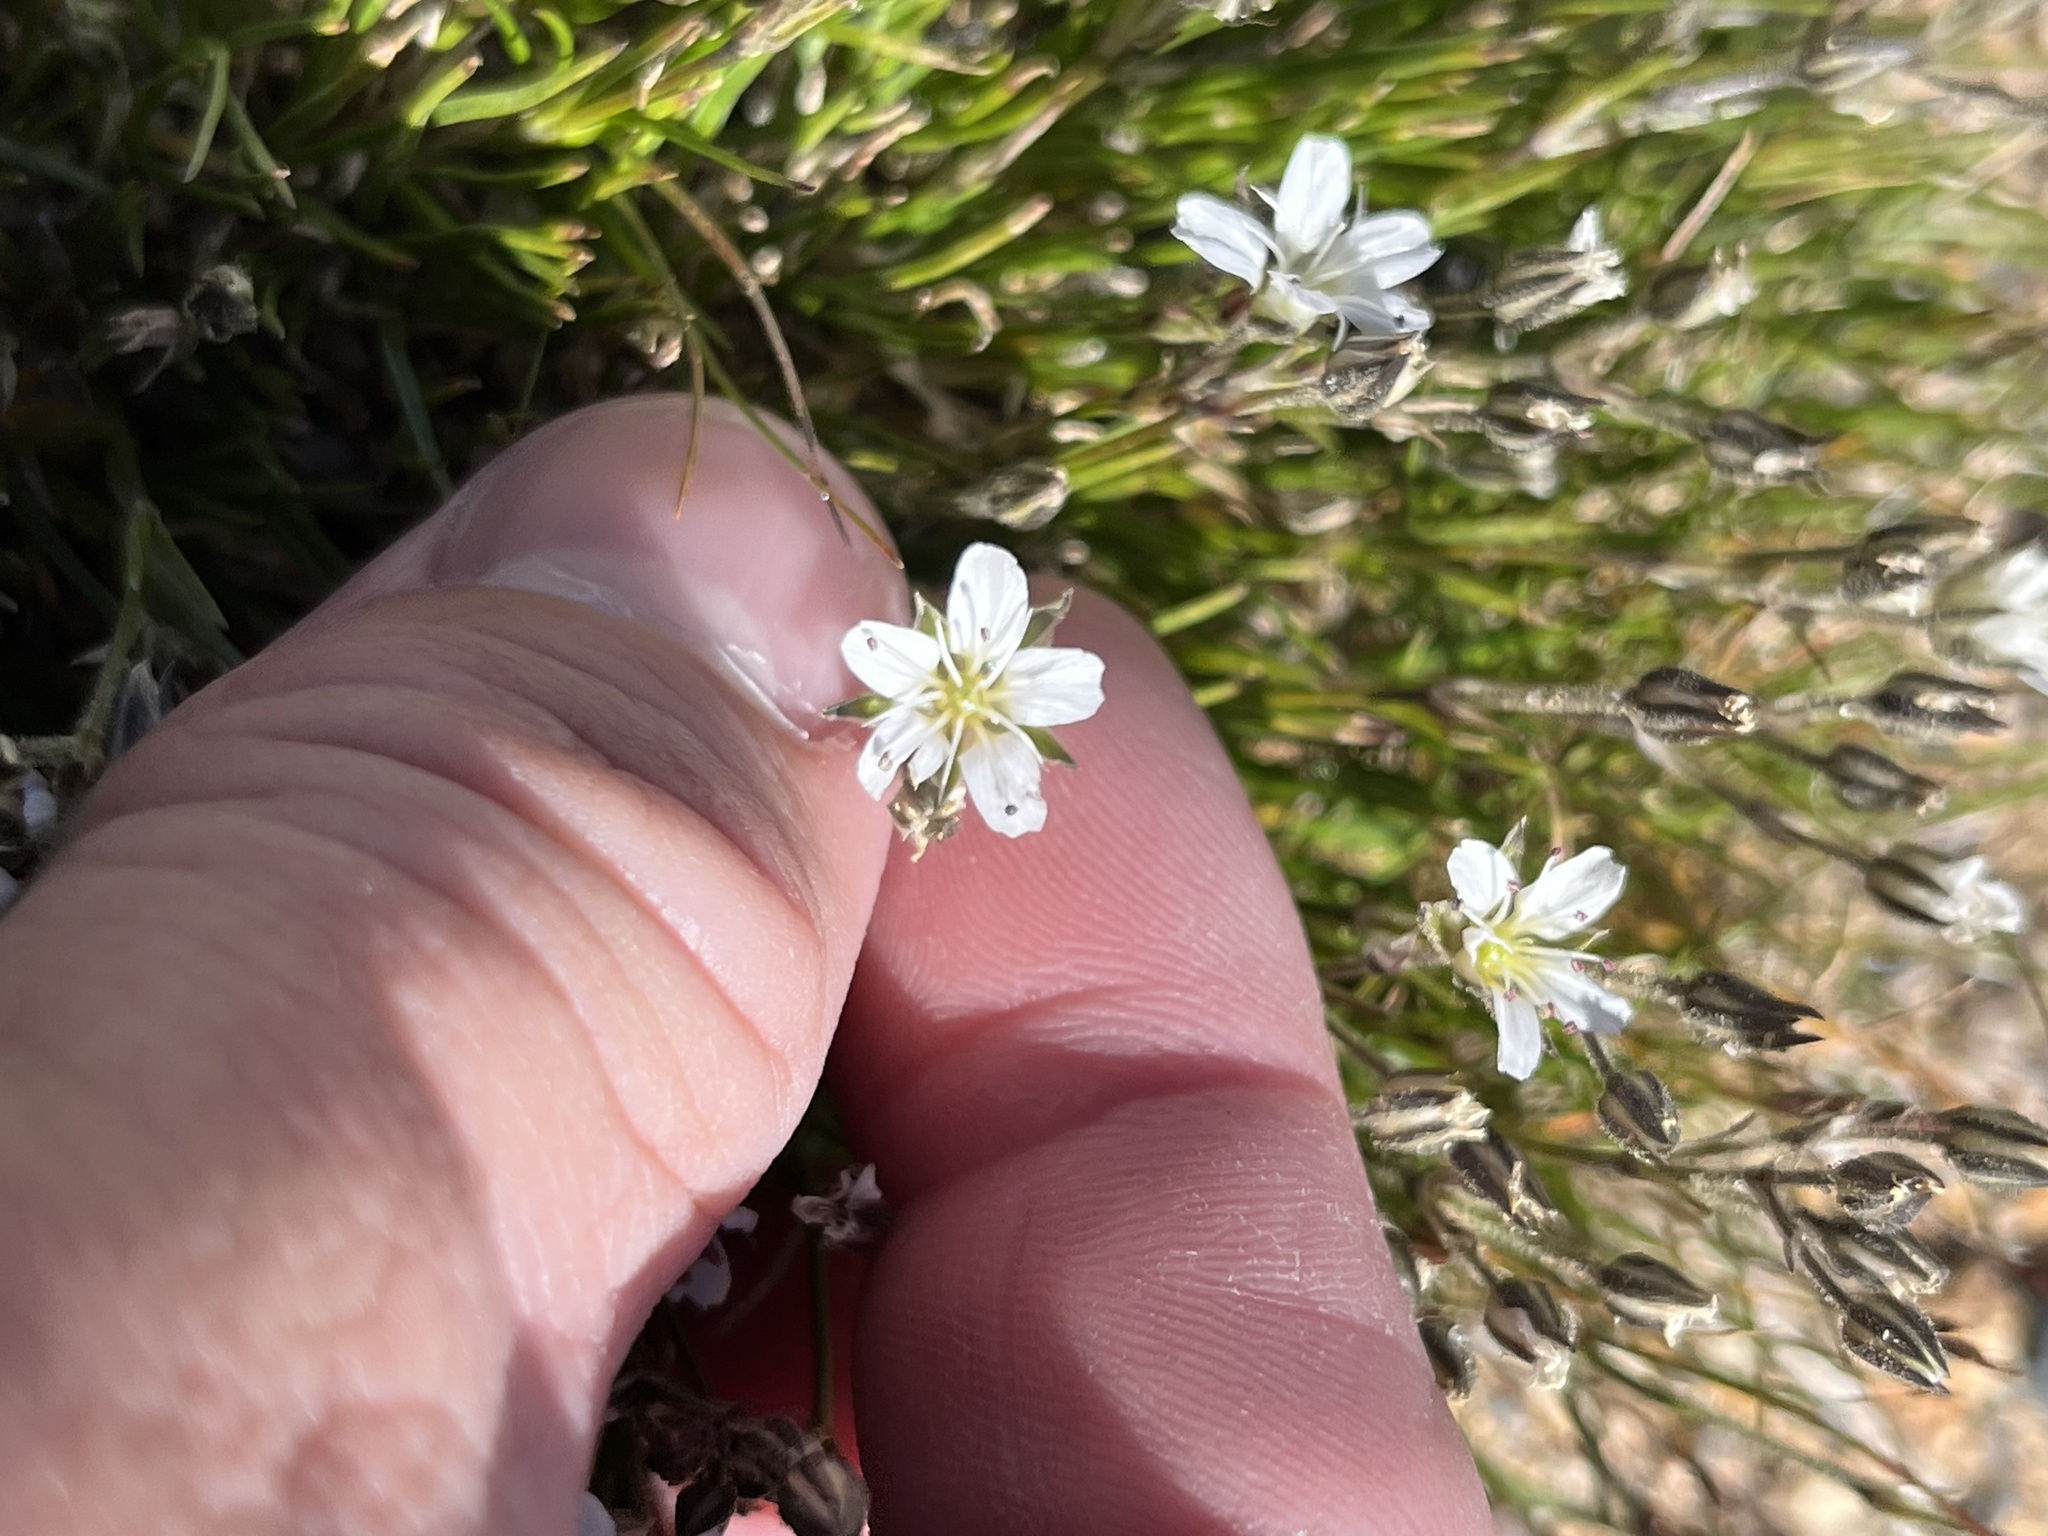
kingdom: Plantae
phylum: Tracheophyta
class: Magnoliopsida
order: Caryophyllales
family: Caryophyllaceae
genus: Eremogone
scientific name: Eremogone fendleri
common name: Fendler's sandwort
